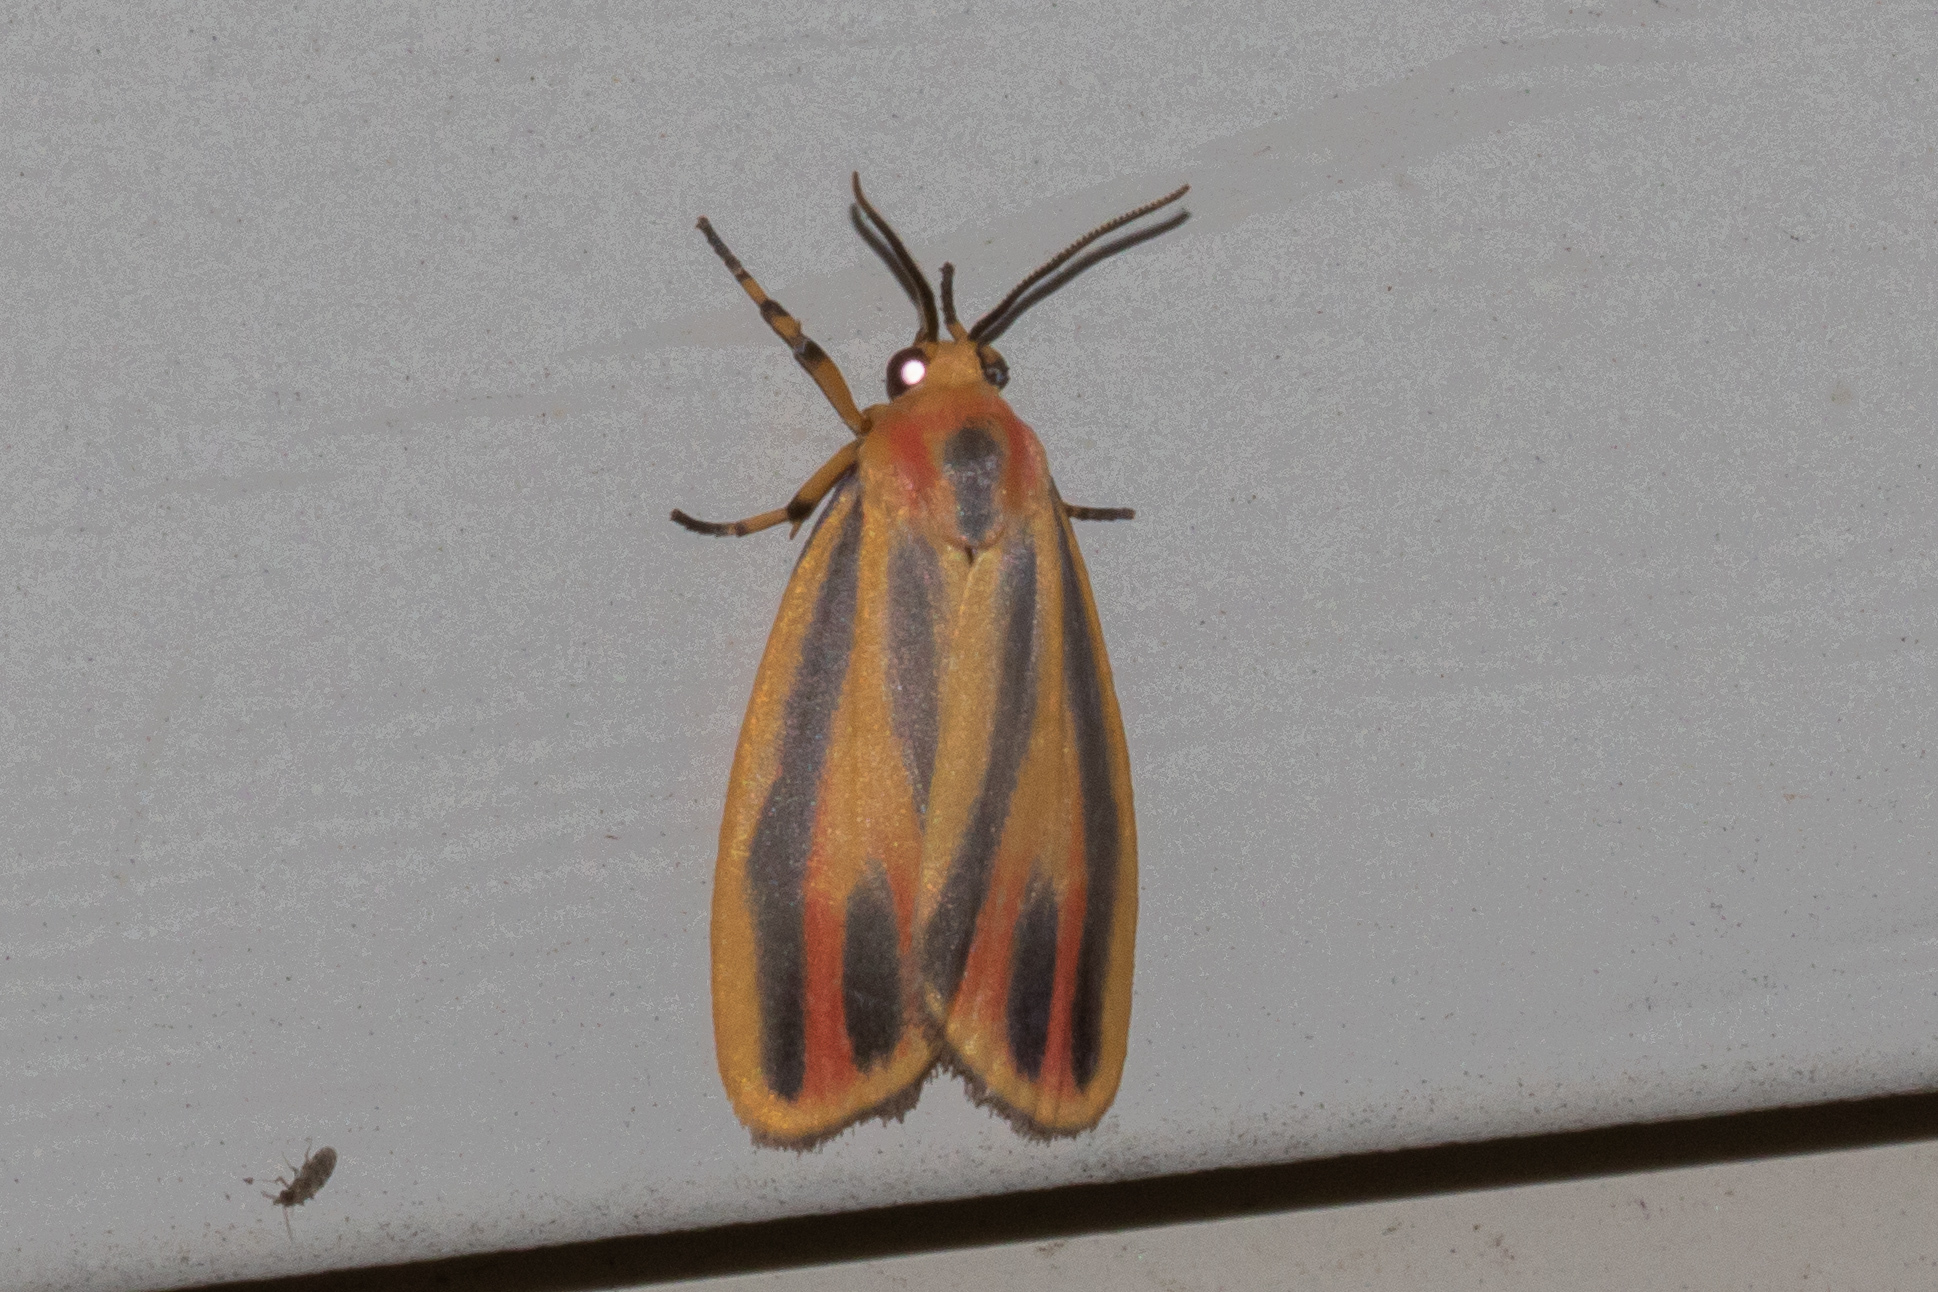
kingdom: Animalia
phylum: Arthropoda
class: Insecta
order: Lepidoptera
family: Erebidae
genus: Hypoprepia
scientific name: Hypoprepia fucosa
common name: Painted lichen moth
